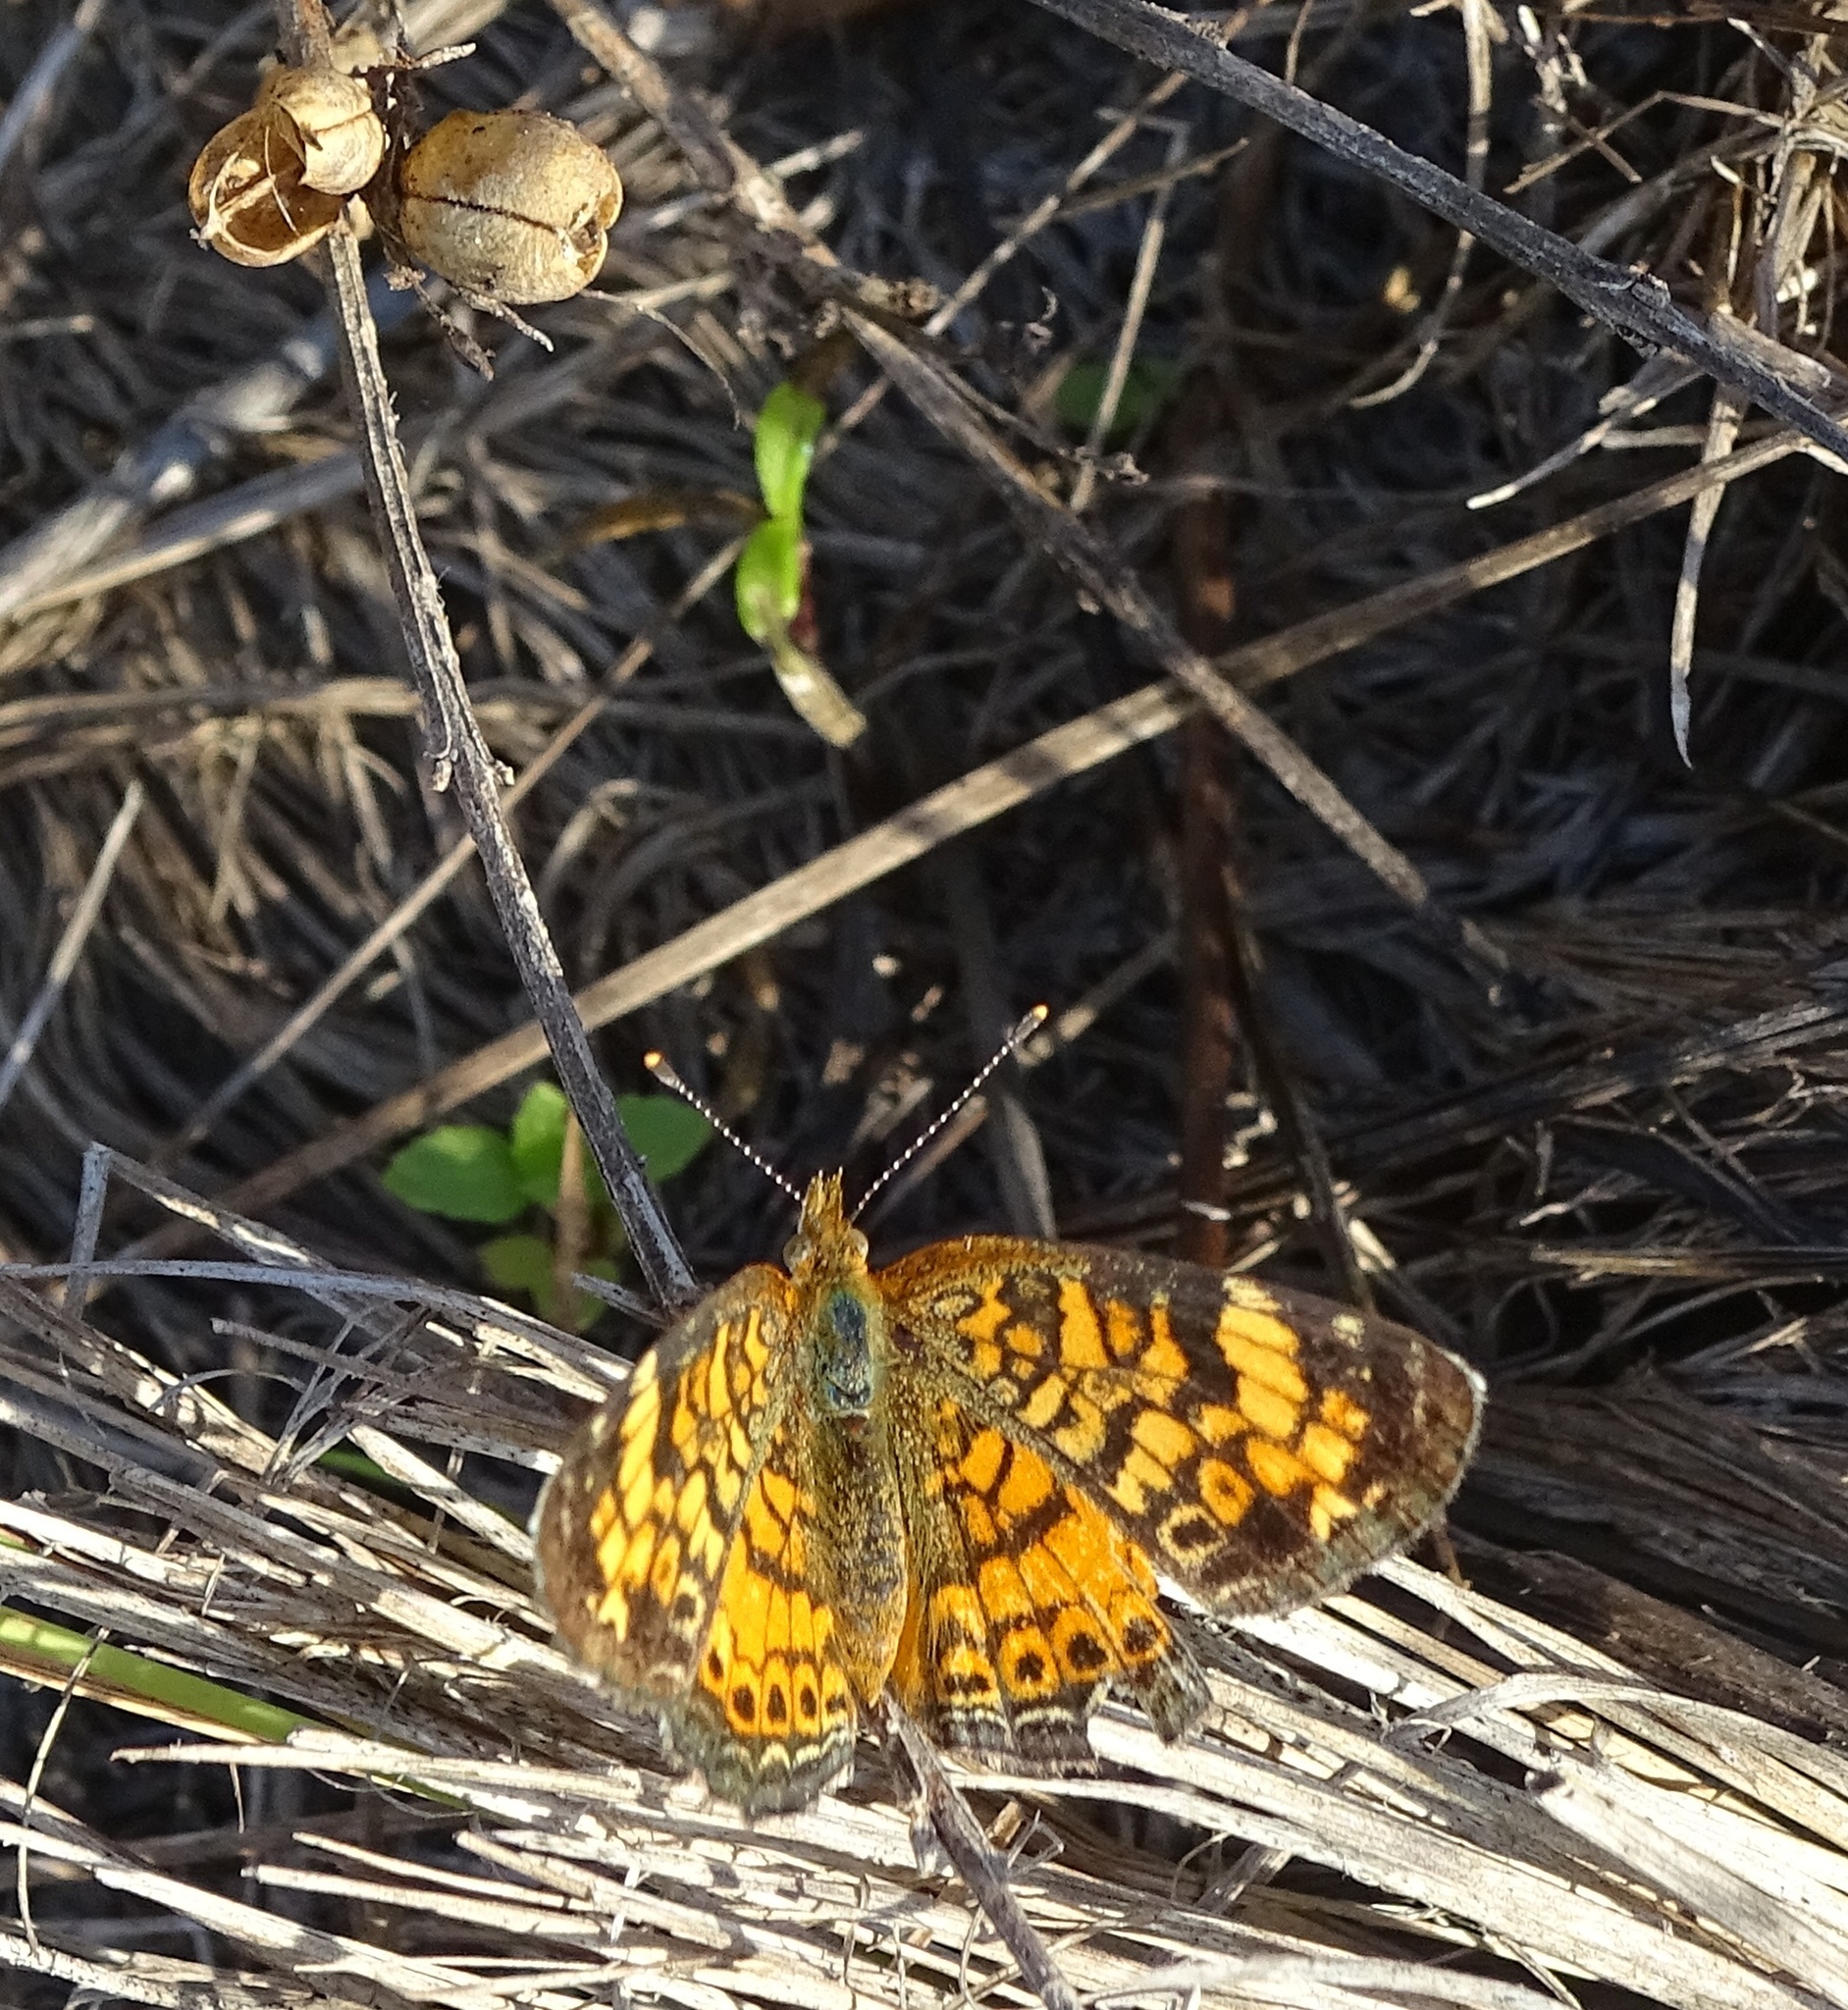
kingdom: Animalia
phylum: Arthropoda
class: Insecta
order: Lepidoptera
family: Nymphalidae
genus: Phyciodes
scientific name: Phyciodes tharos
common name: Pearl crescent
